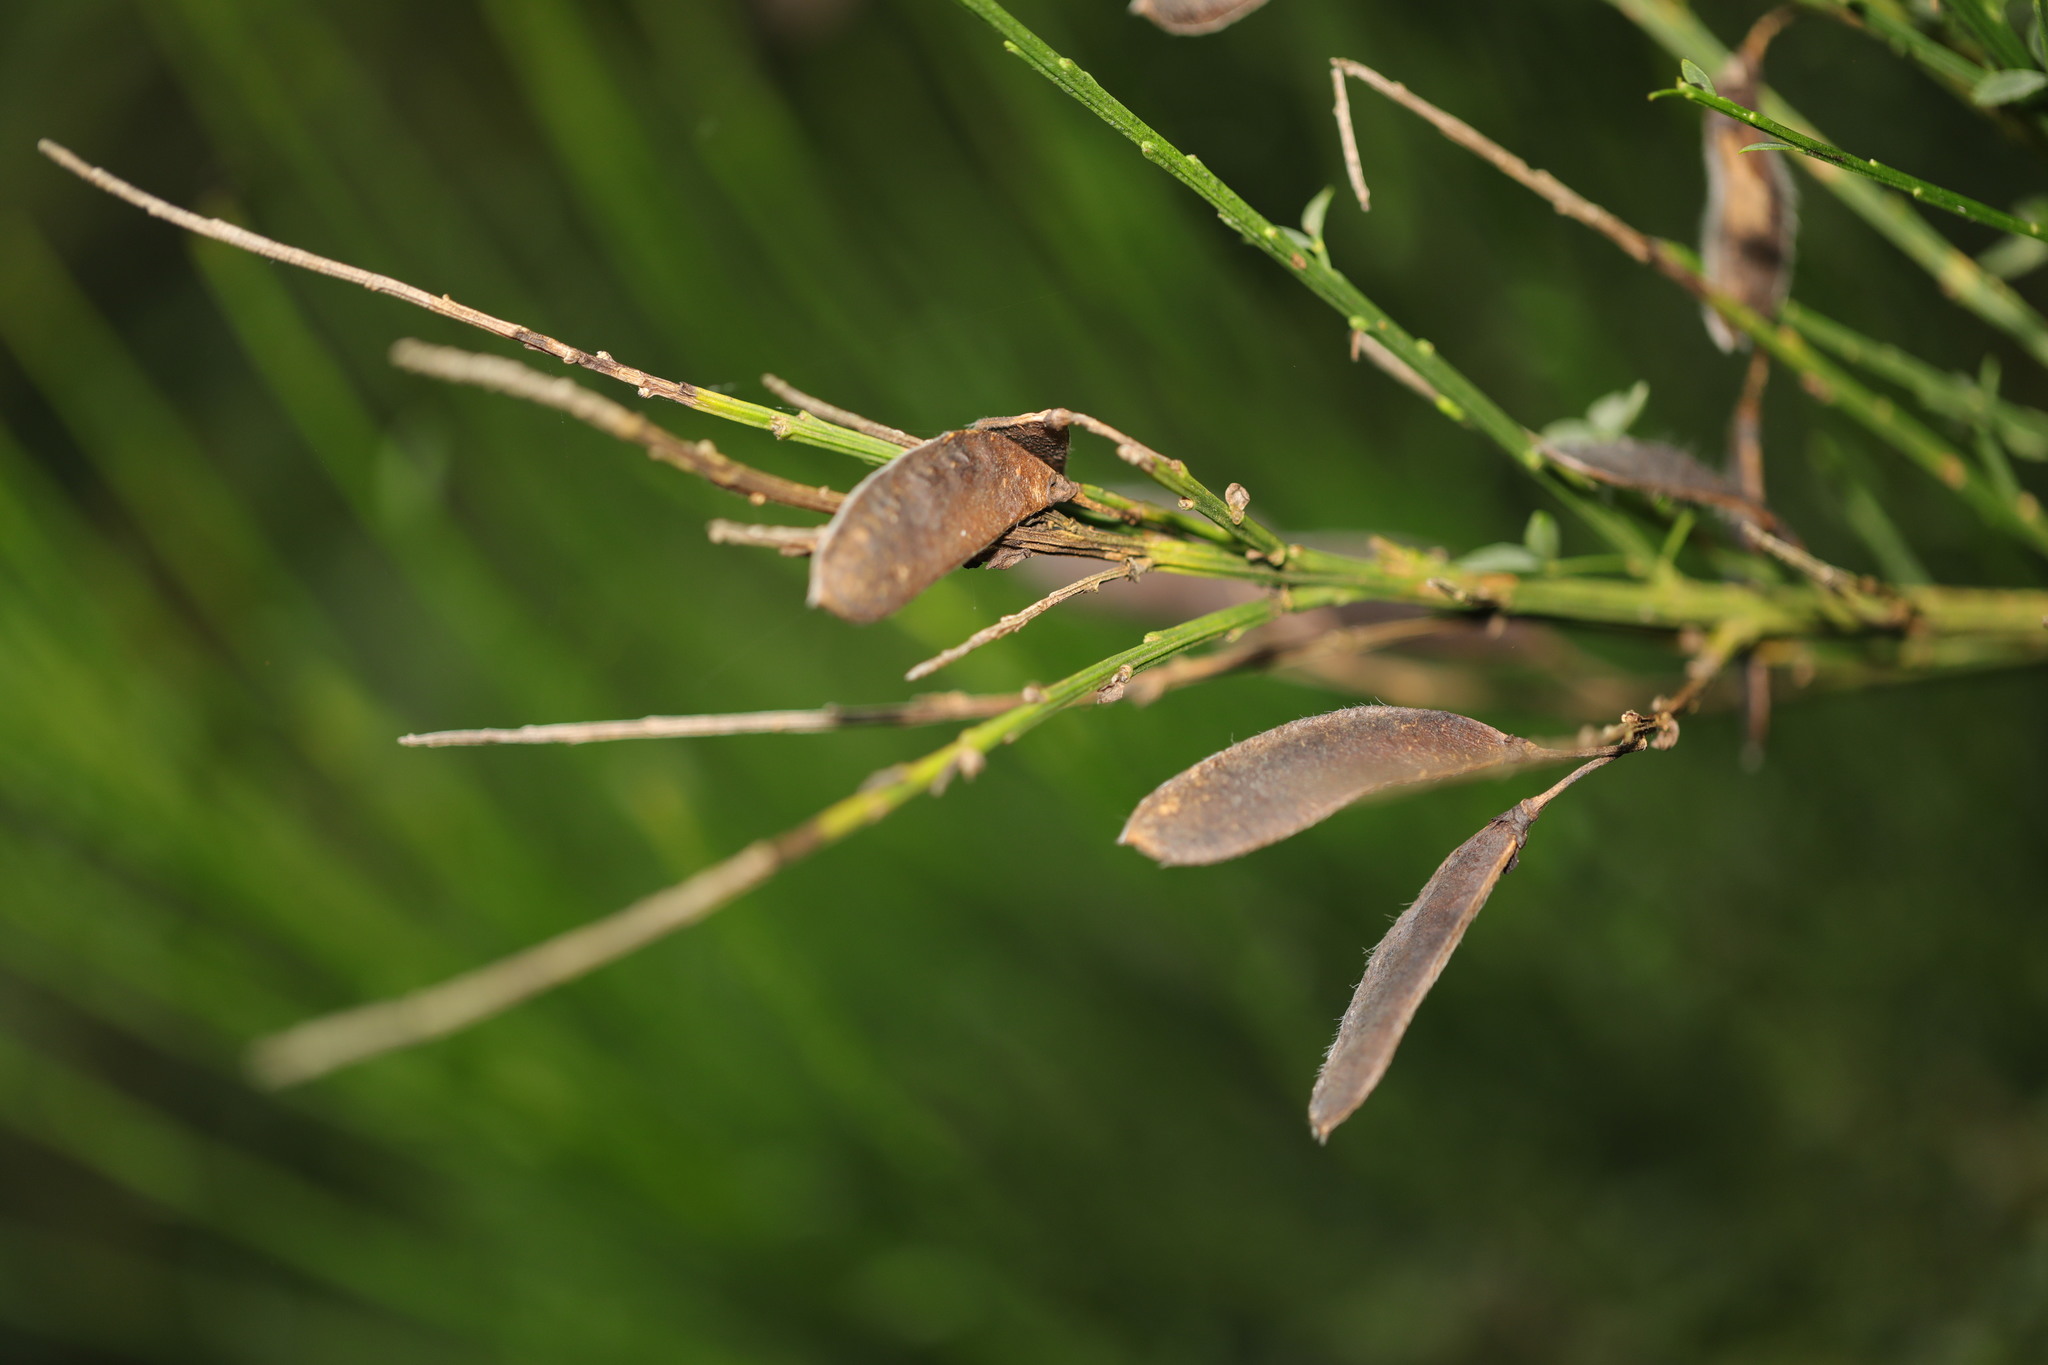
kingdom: Plantae
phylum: Tracheophyta
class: Magnoliopsida
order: Fabales
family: Fabaceae
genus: Cytisus
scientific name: Cytisus scoparius
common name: Scotch broom
